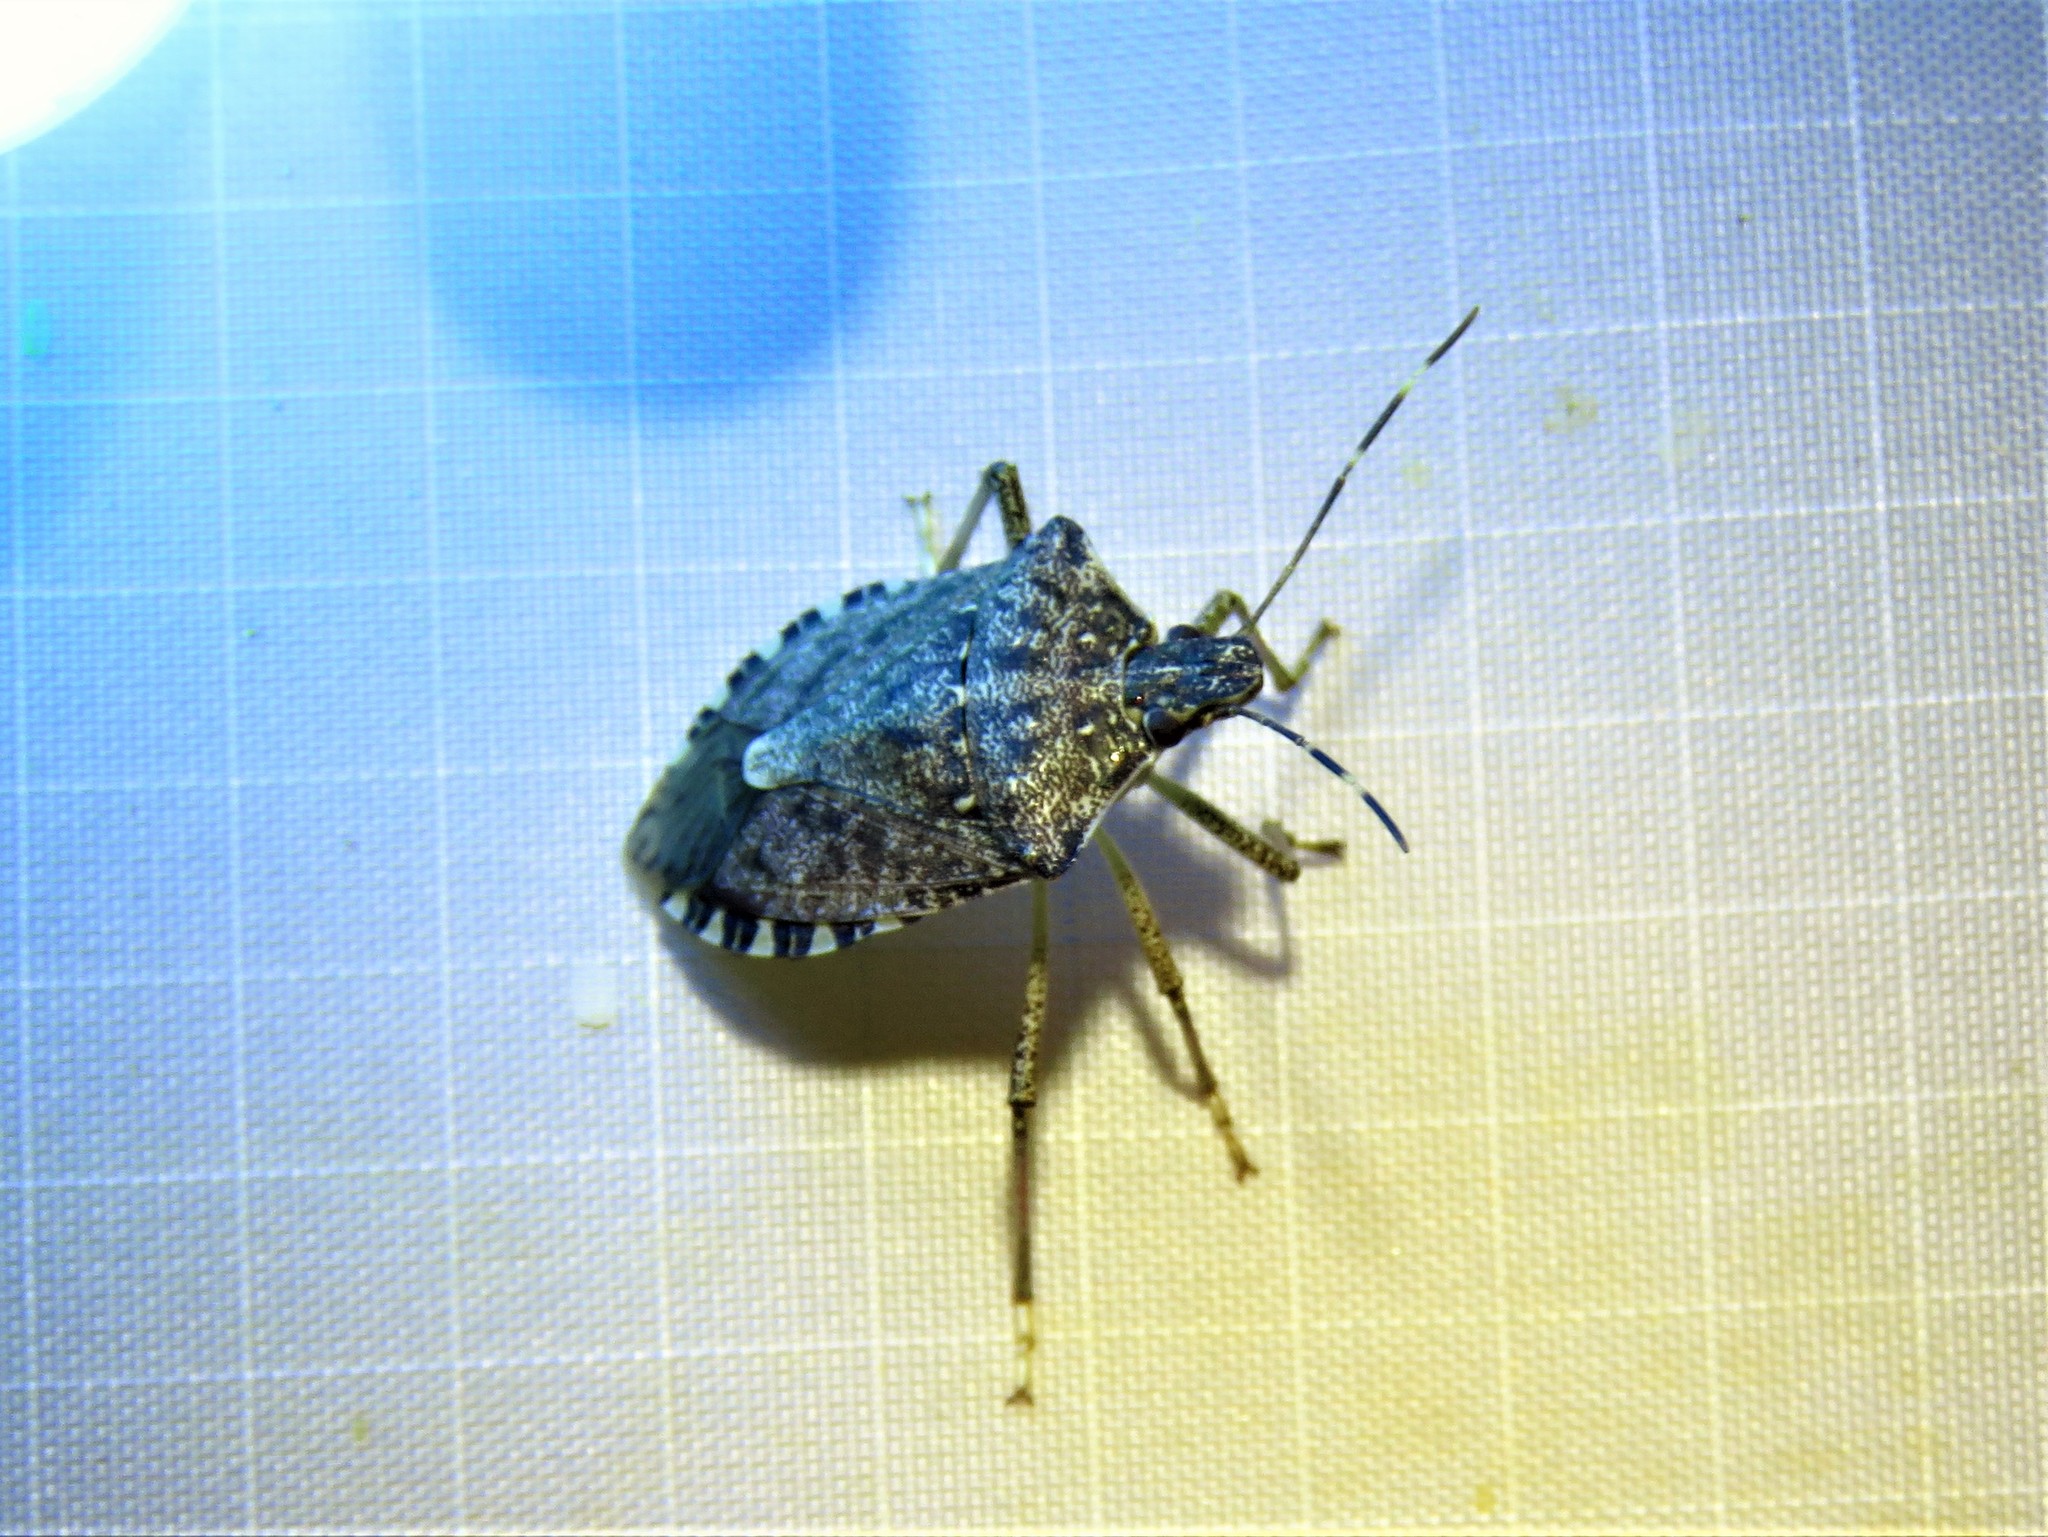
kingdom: Animalia
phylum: Arthropoda
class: Insecta
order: Hemiptera
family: Pentatomidae
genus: Halyomorpha
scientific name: Halyomorpha halys
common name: Brown marmorated stink bug
